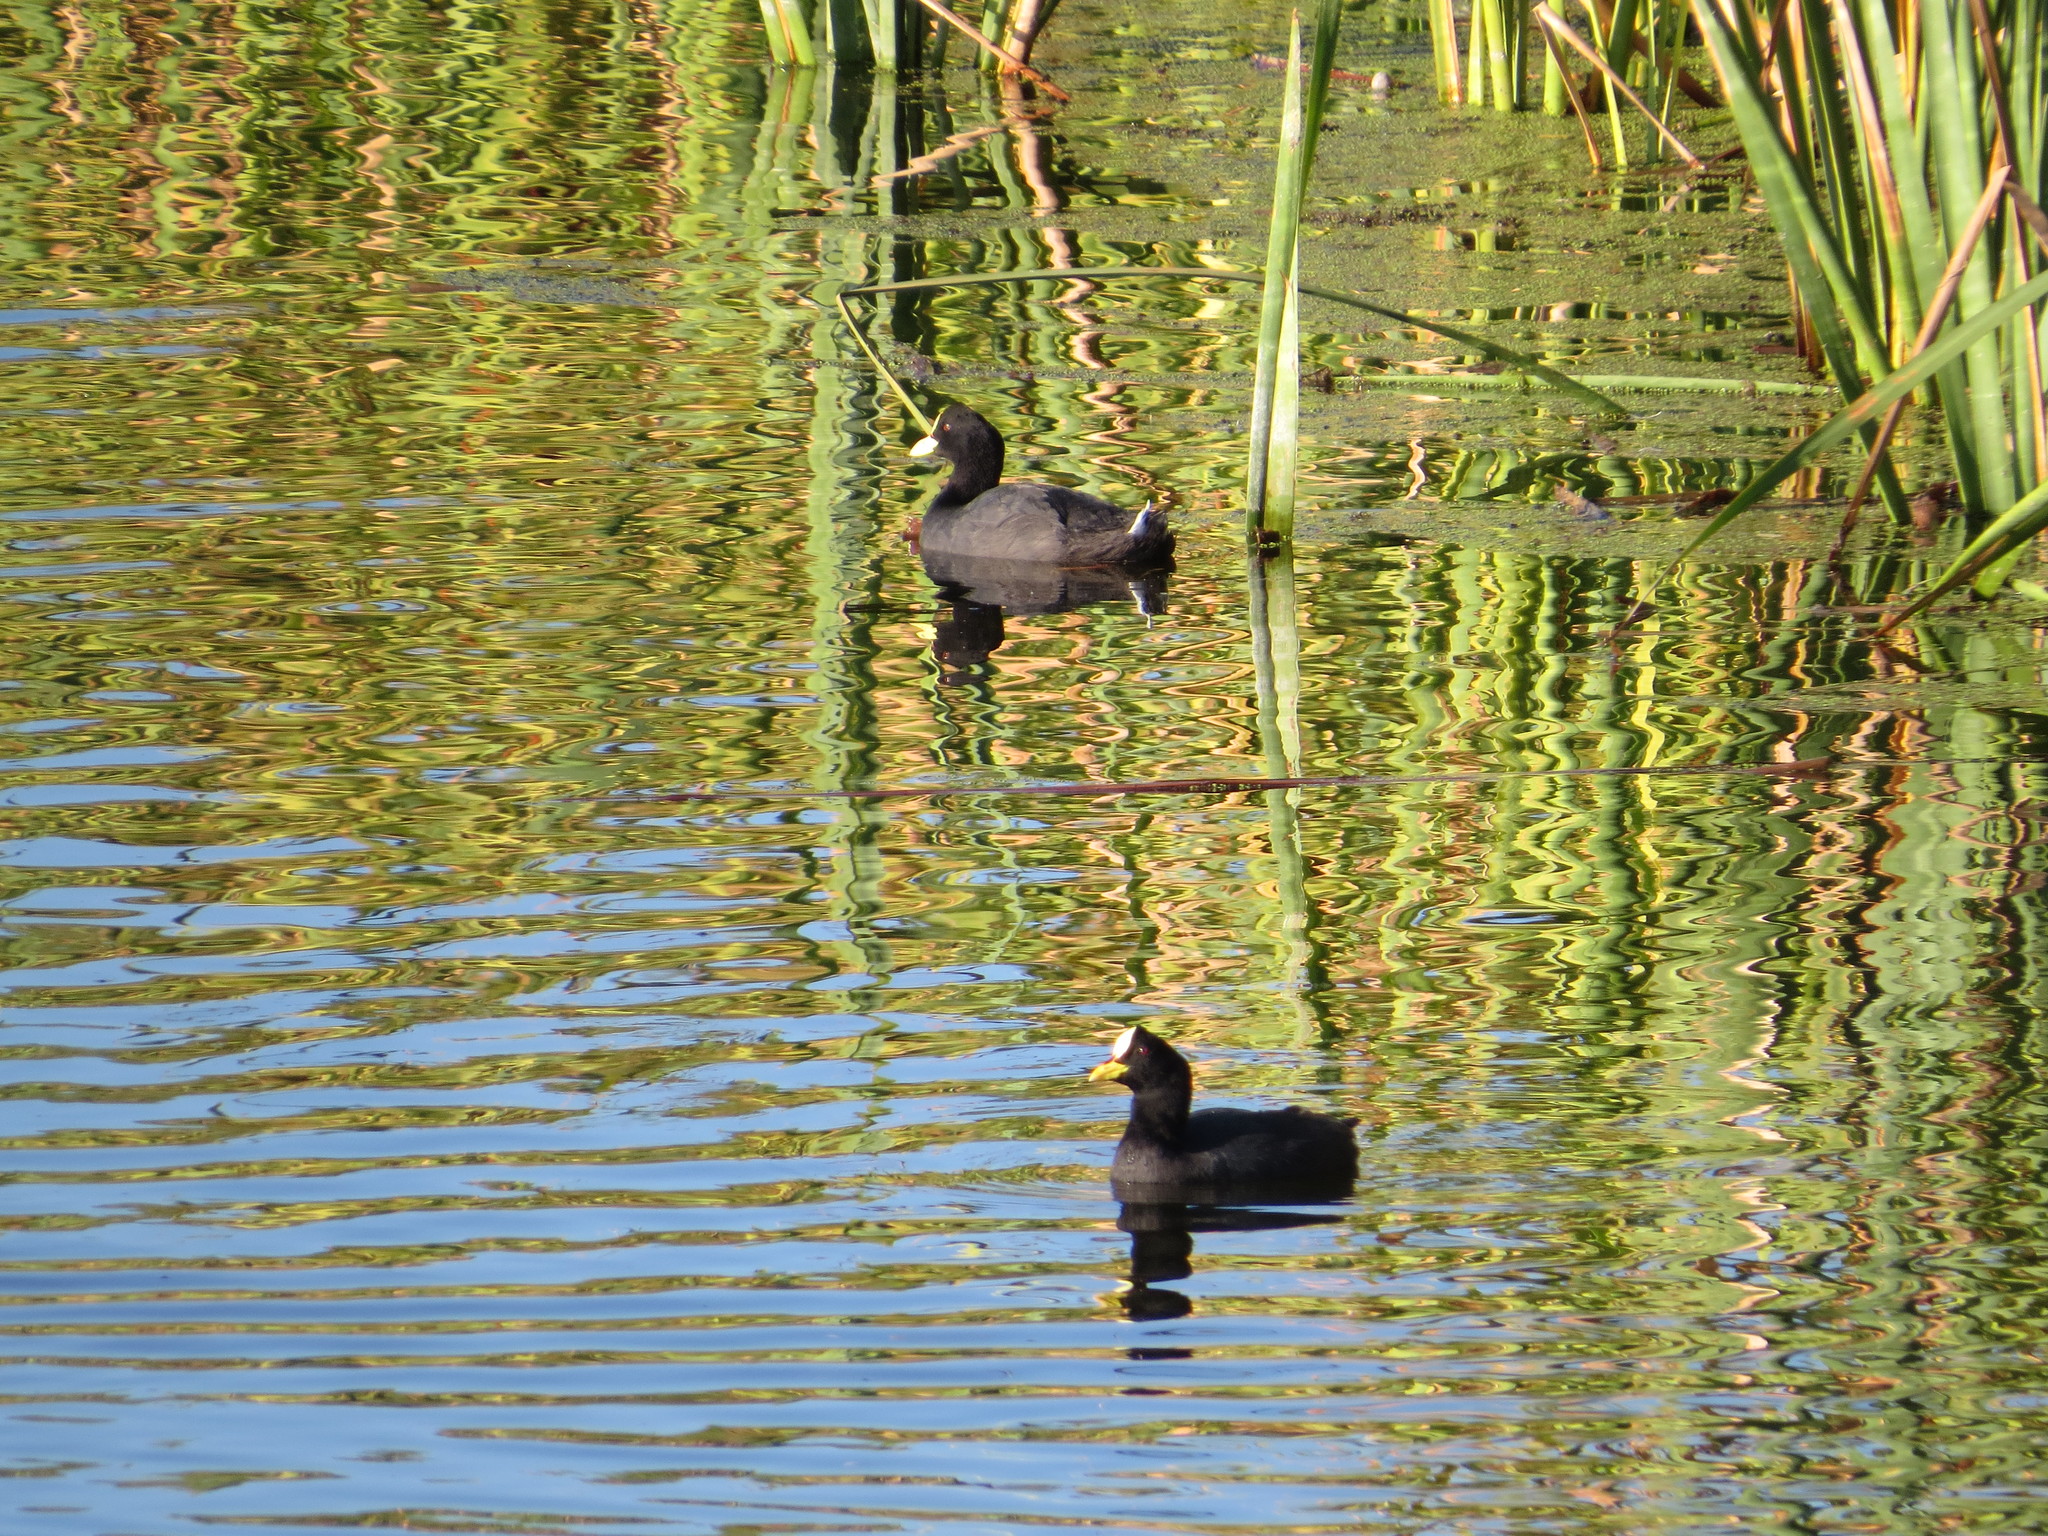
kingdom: Animalia
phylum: Chordata
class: Aves
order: Gruiformes
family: Rallidae
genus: Fulica
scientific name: Fulica armillata
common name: Red-gartered coot
